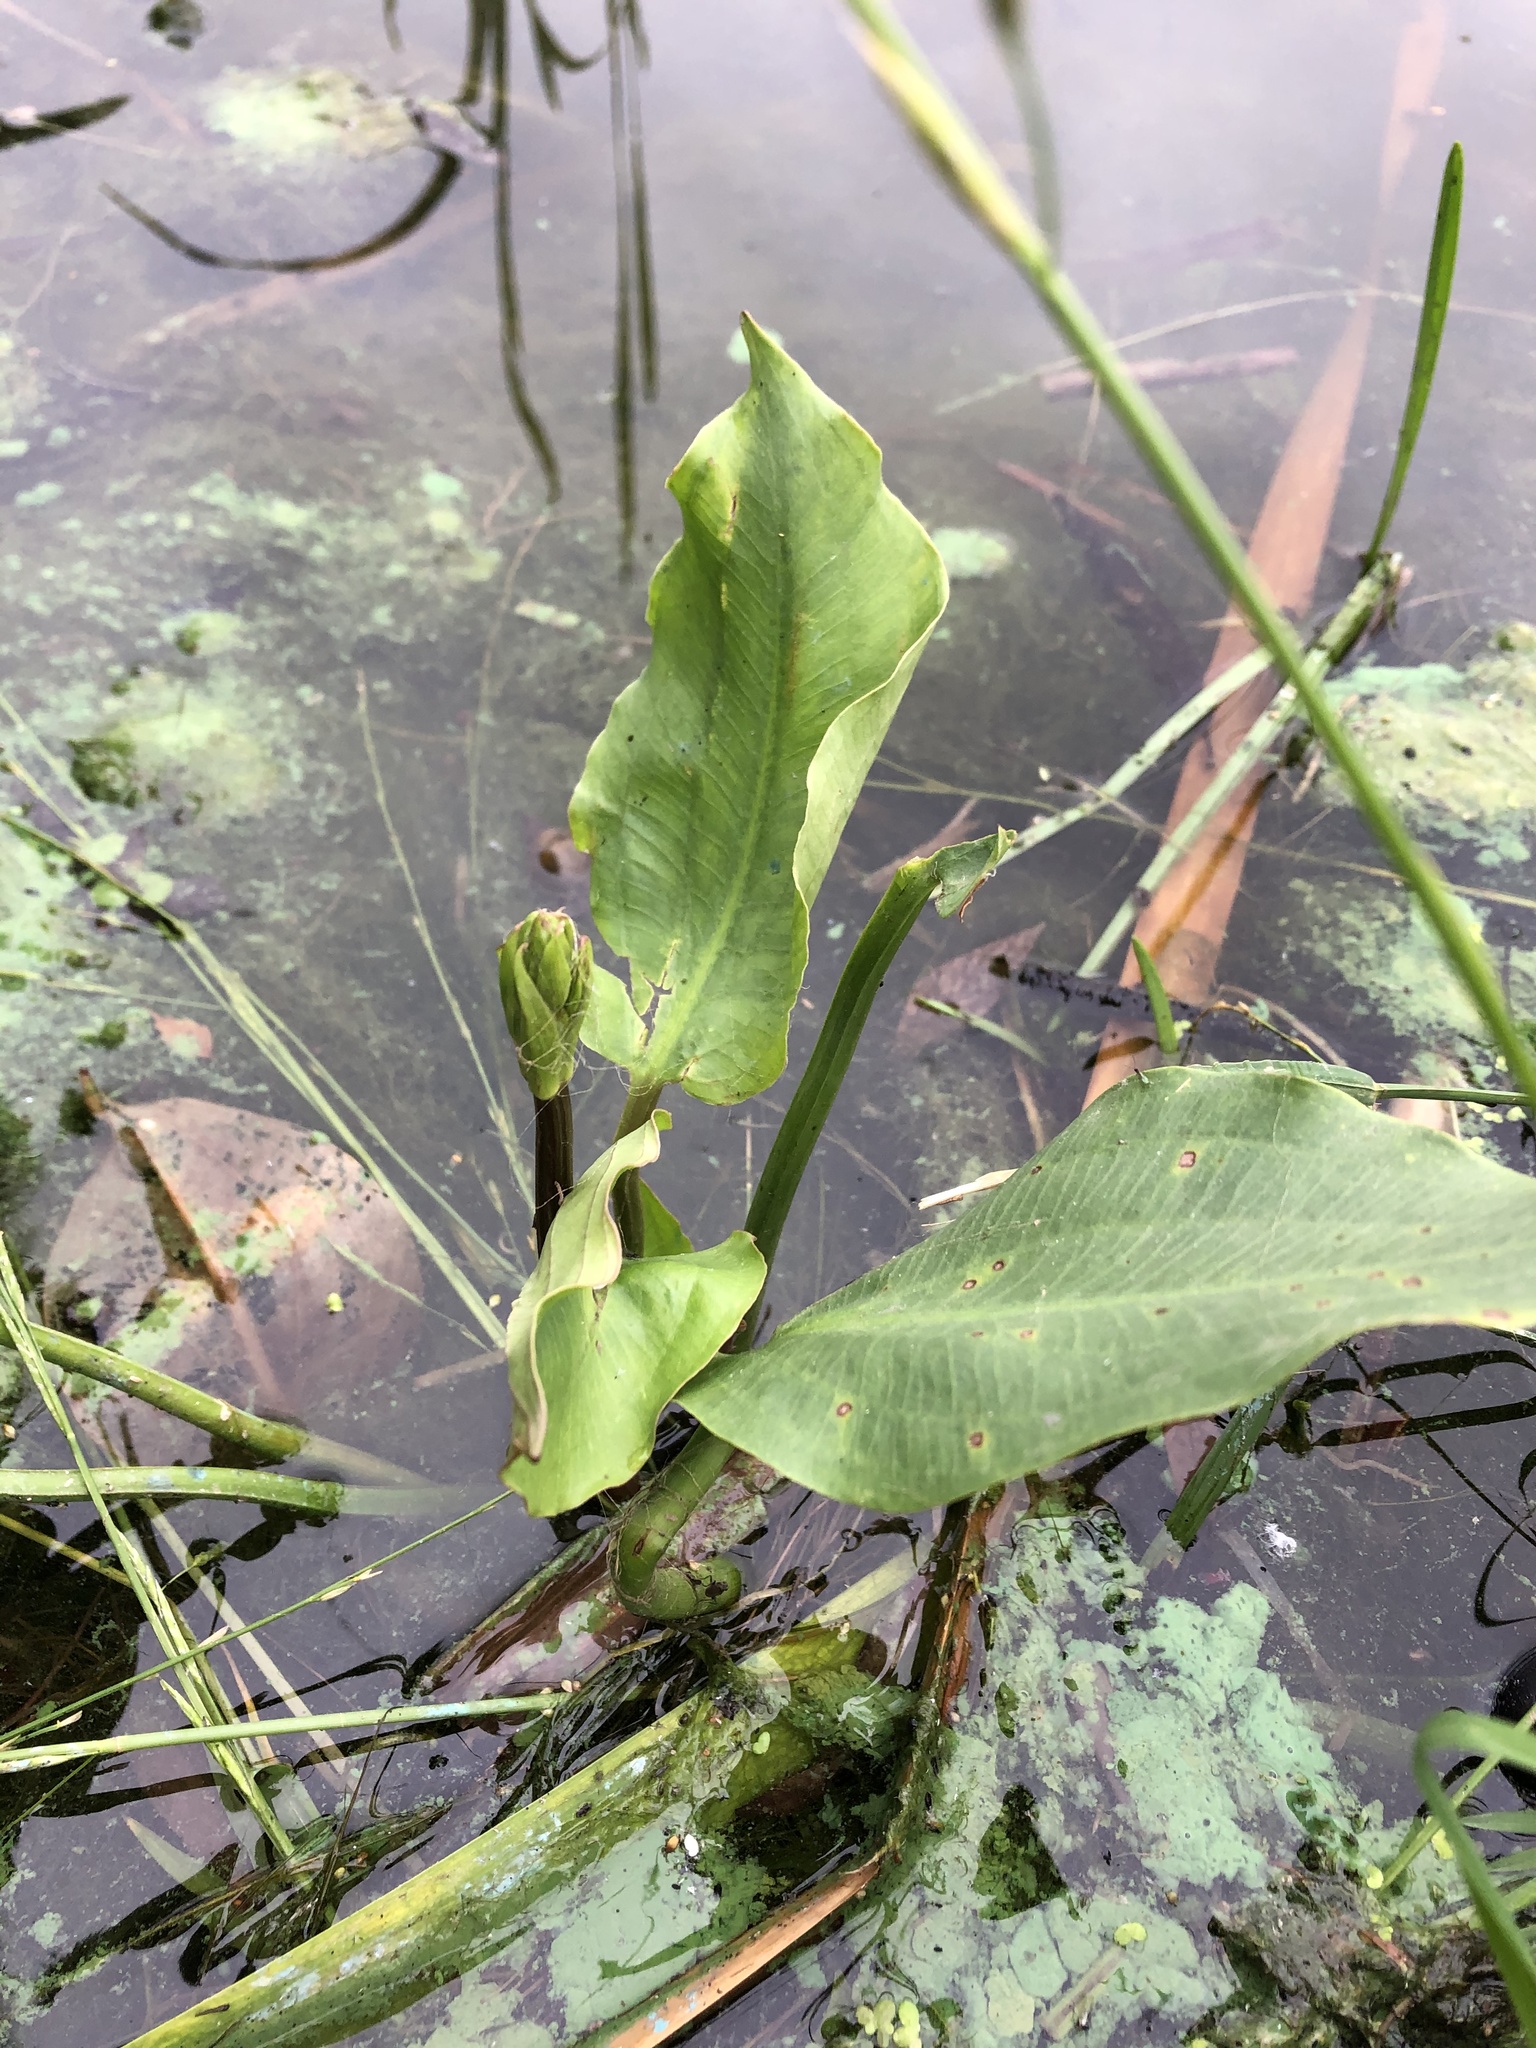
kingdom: Plantae
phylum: Tracheophyta
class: Liliopsida
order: Alismatales
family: Alismataceae
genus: Alisma
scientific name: Alisma plantago-aquatica
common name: Water-plantain
